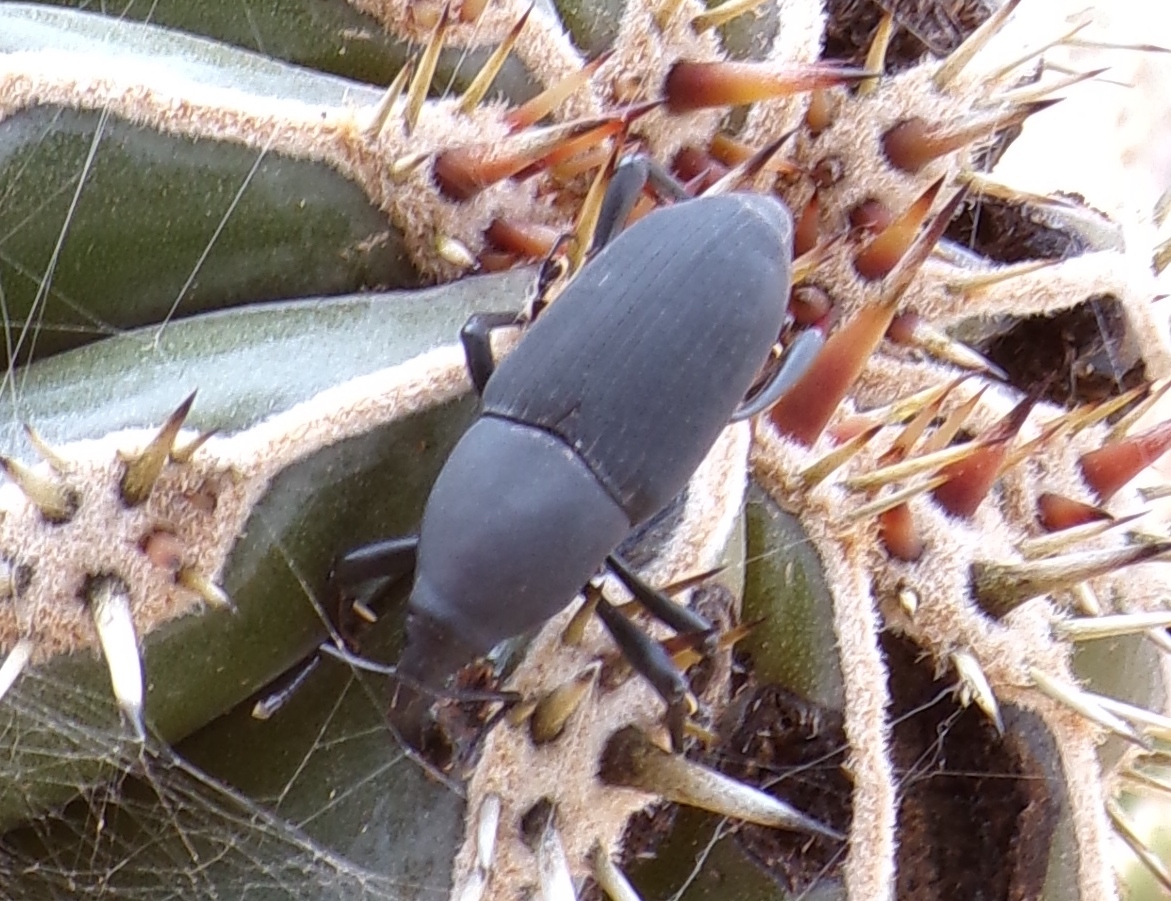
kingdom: Animalia
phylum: Arthropoda
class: Insecta
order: Coleoptera
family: Dryophthoridae
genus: Cactophagus
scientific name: Cactophagus spinolae
